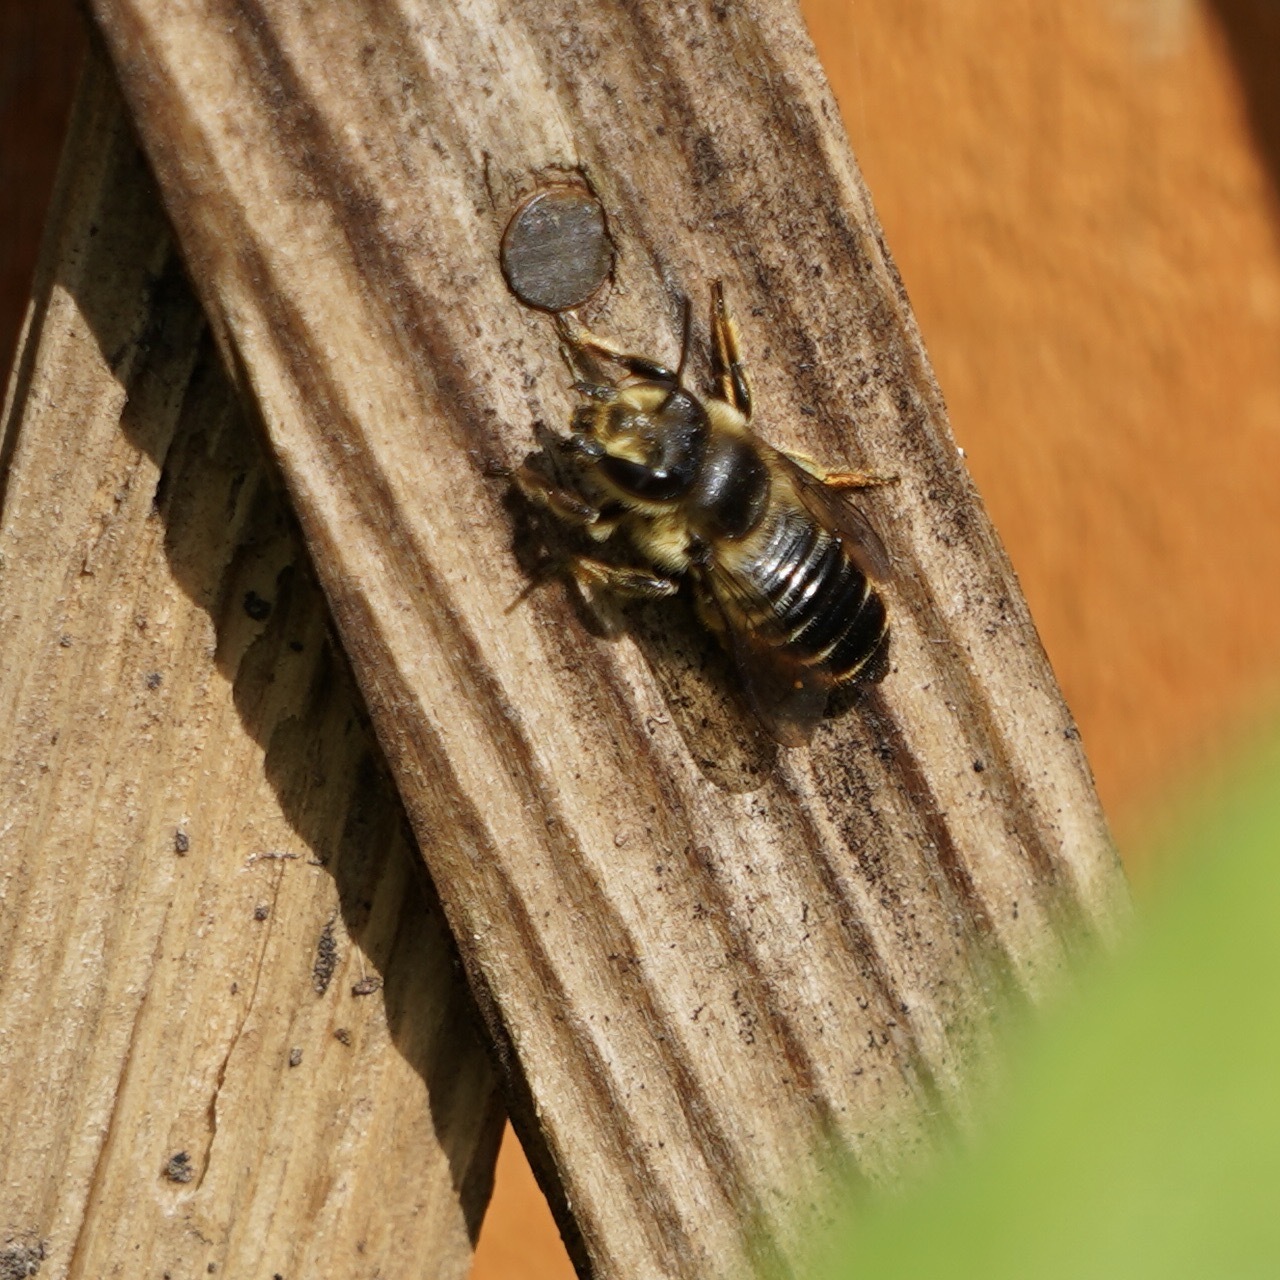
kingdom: Animalia
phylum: Arthropoda
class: Insecta
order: Hymenoptera
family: Megachilidae
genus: Megachile
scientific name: Megachile centuncularis
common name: Patchwork leafcutter bee
